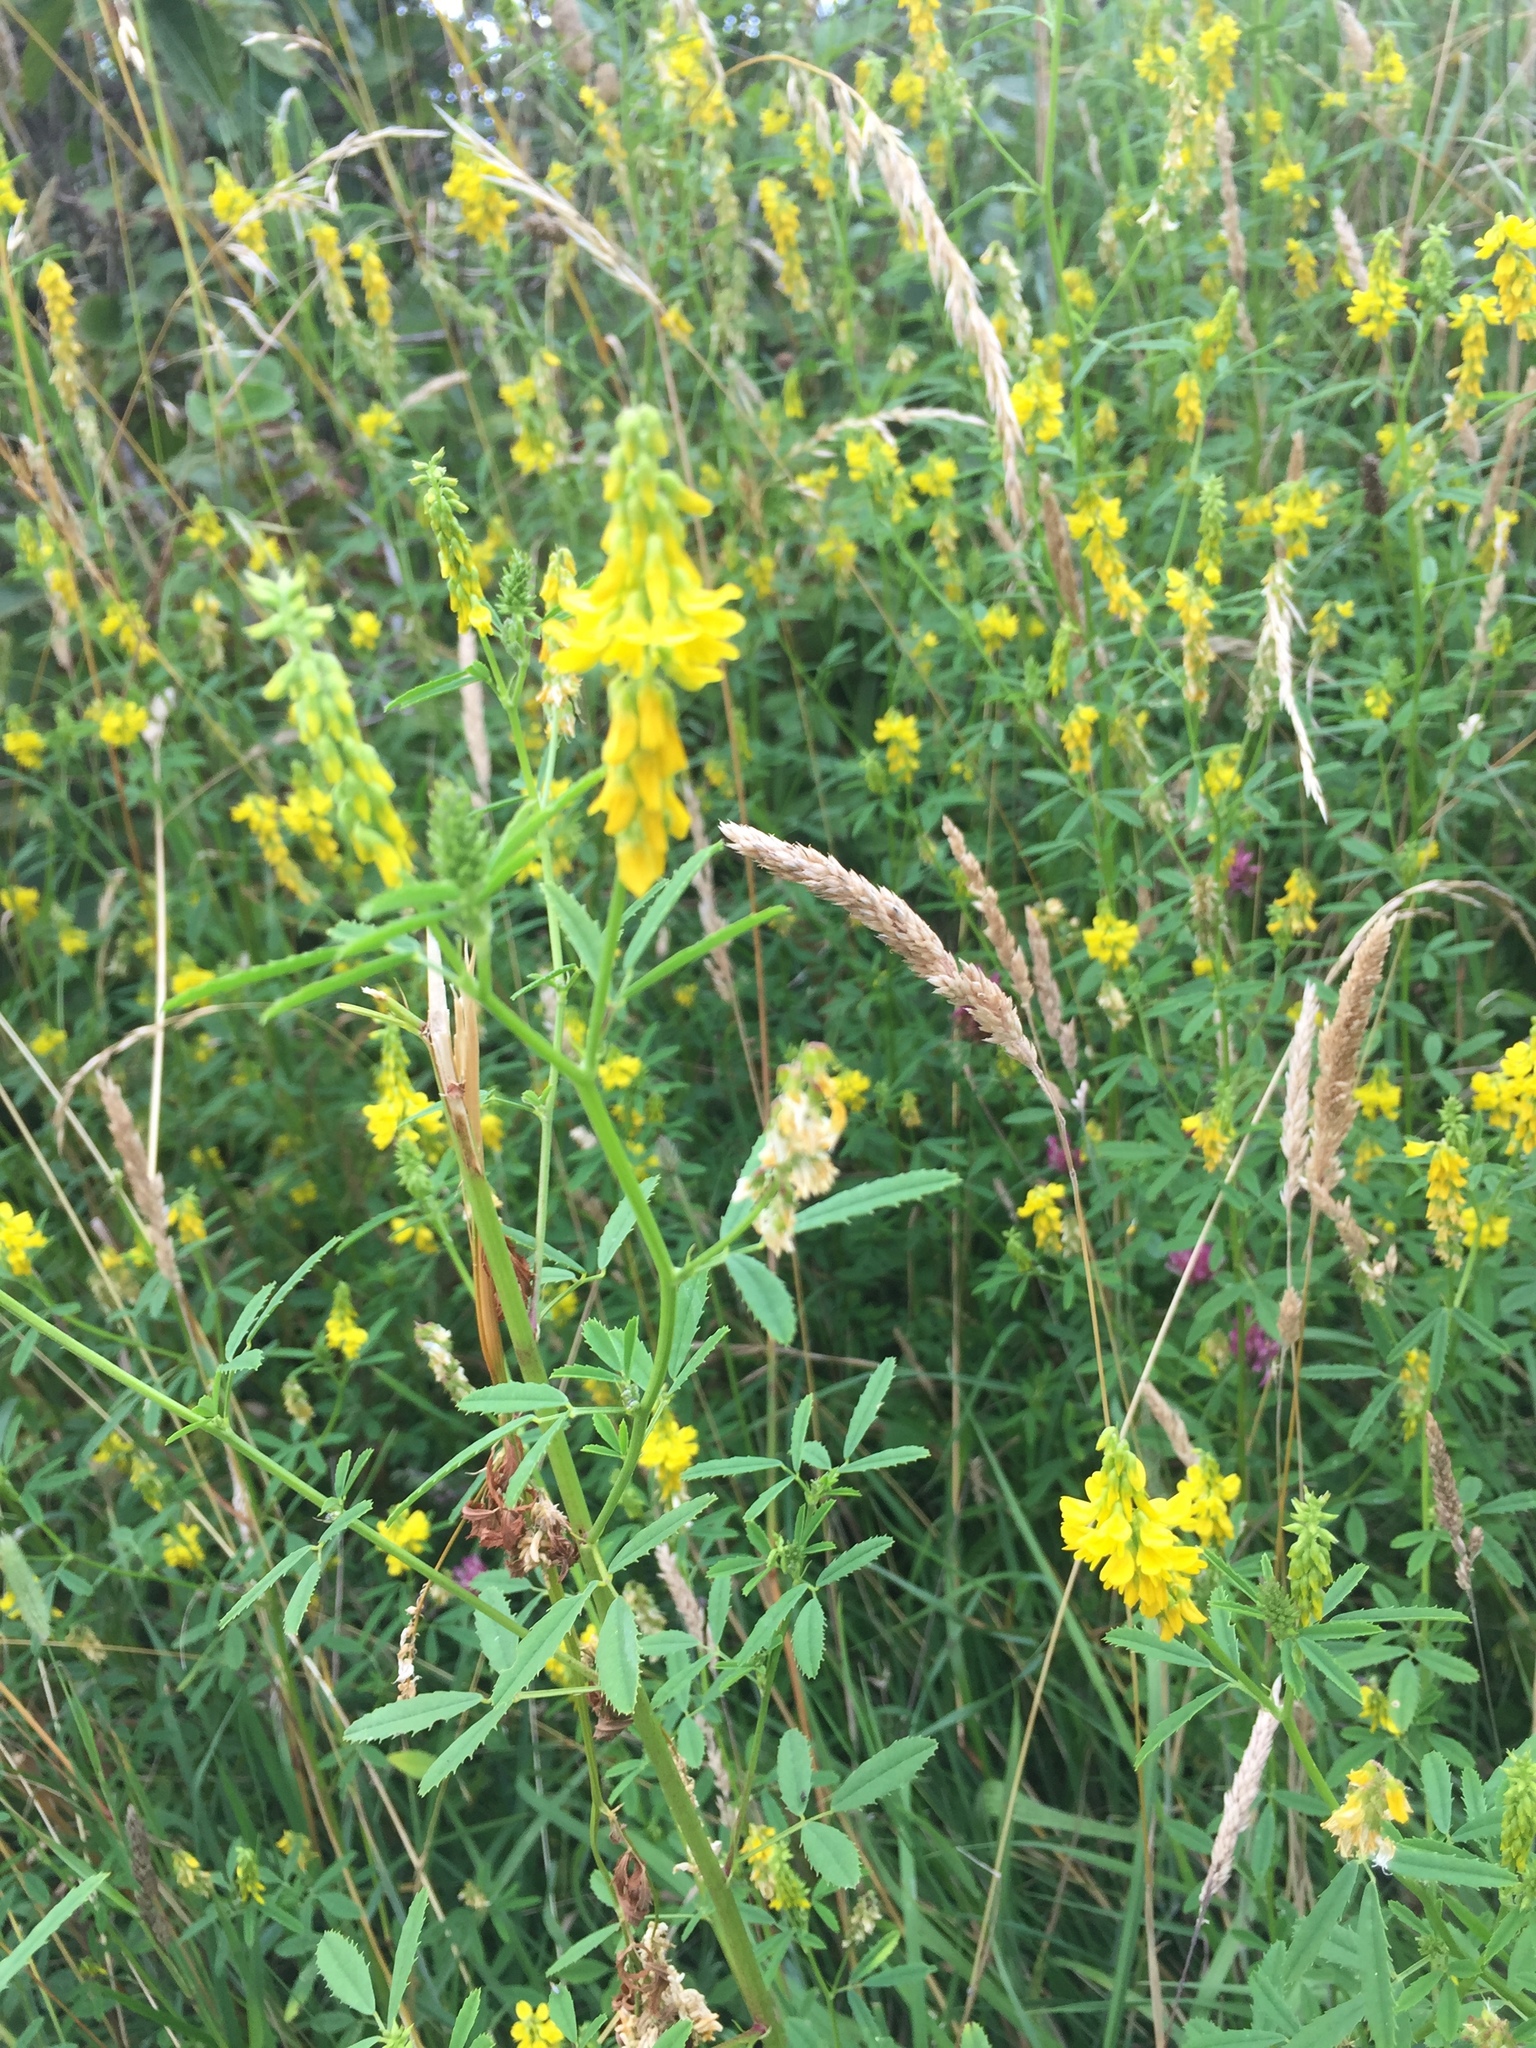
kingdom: Plantae
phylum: Tracheophyta
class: Magnoliopsida
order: Fabales
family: Fabaceae
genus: Melilotus
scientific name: Melilotus officinalis
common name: Sweetclover
